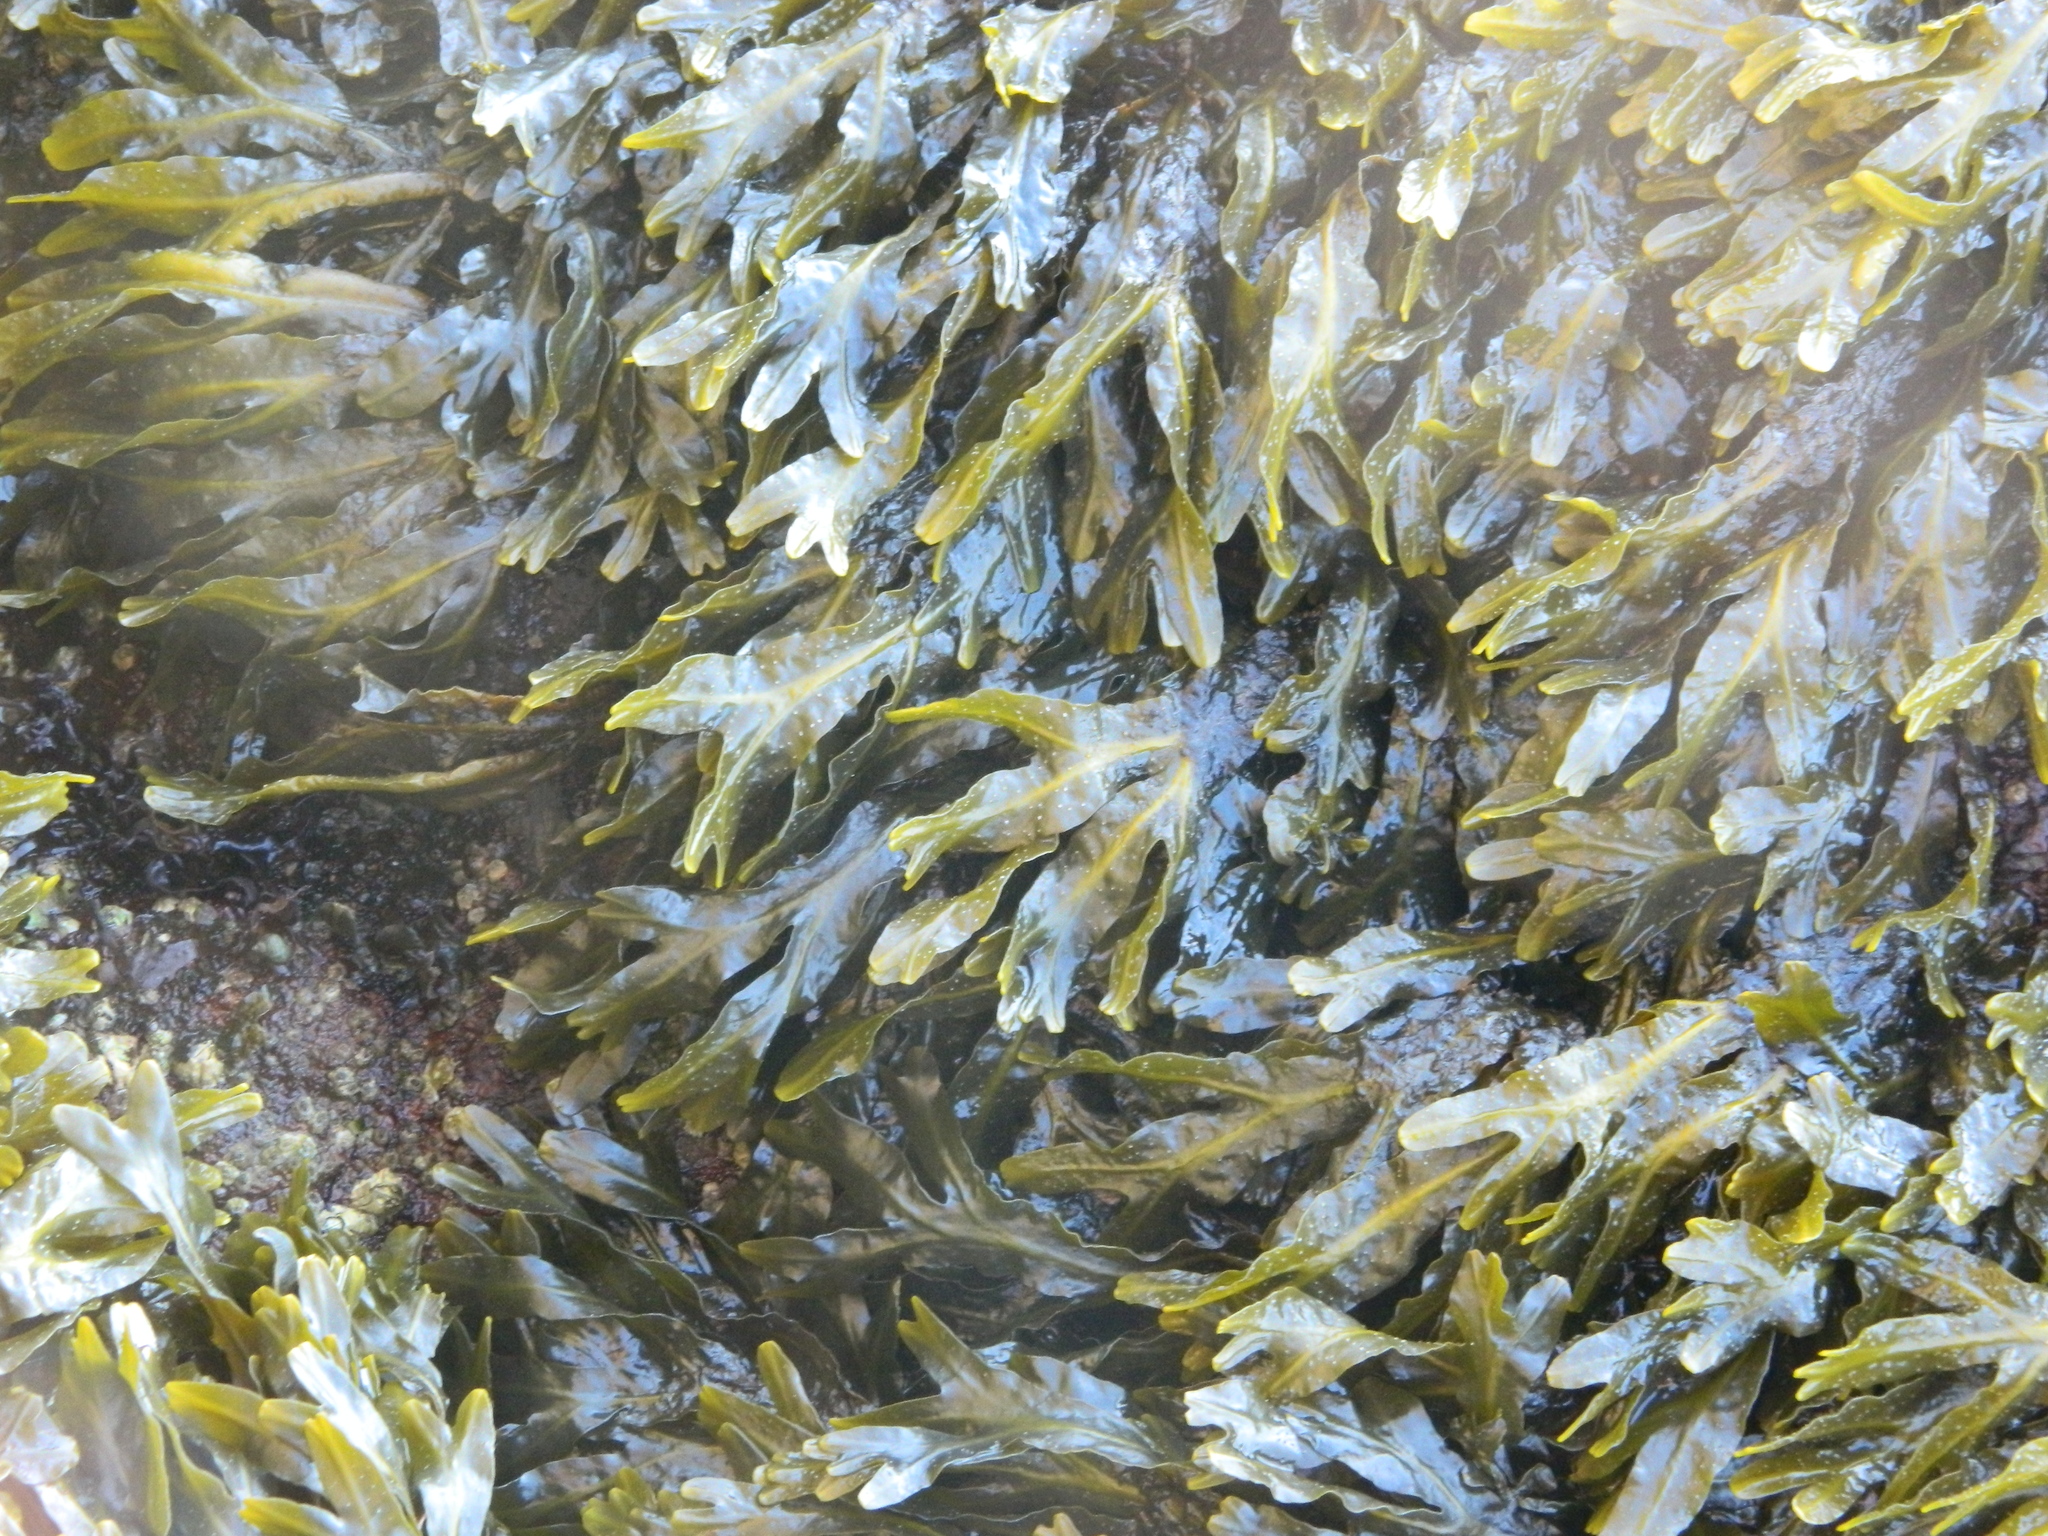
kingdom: Chromista
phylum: Ochrophyta
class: Phaeophyceae
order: Fucales
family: Fucaceae
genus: Fucus
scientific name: Fucus distichus
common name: Rockweed
